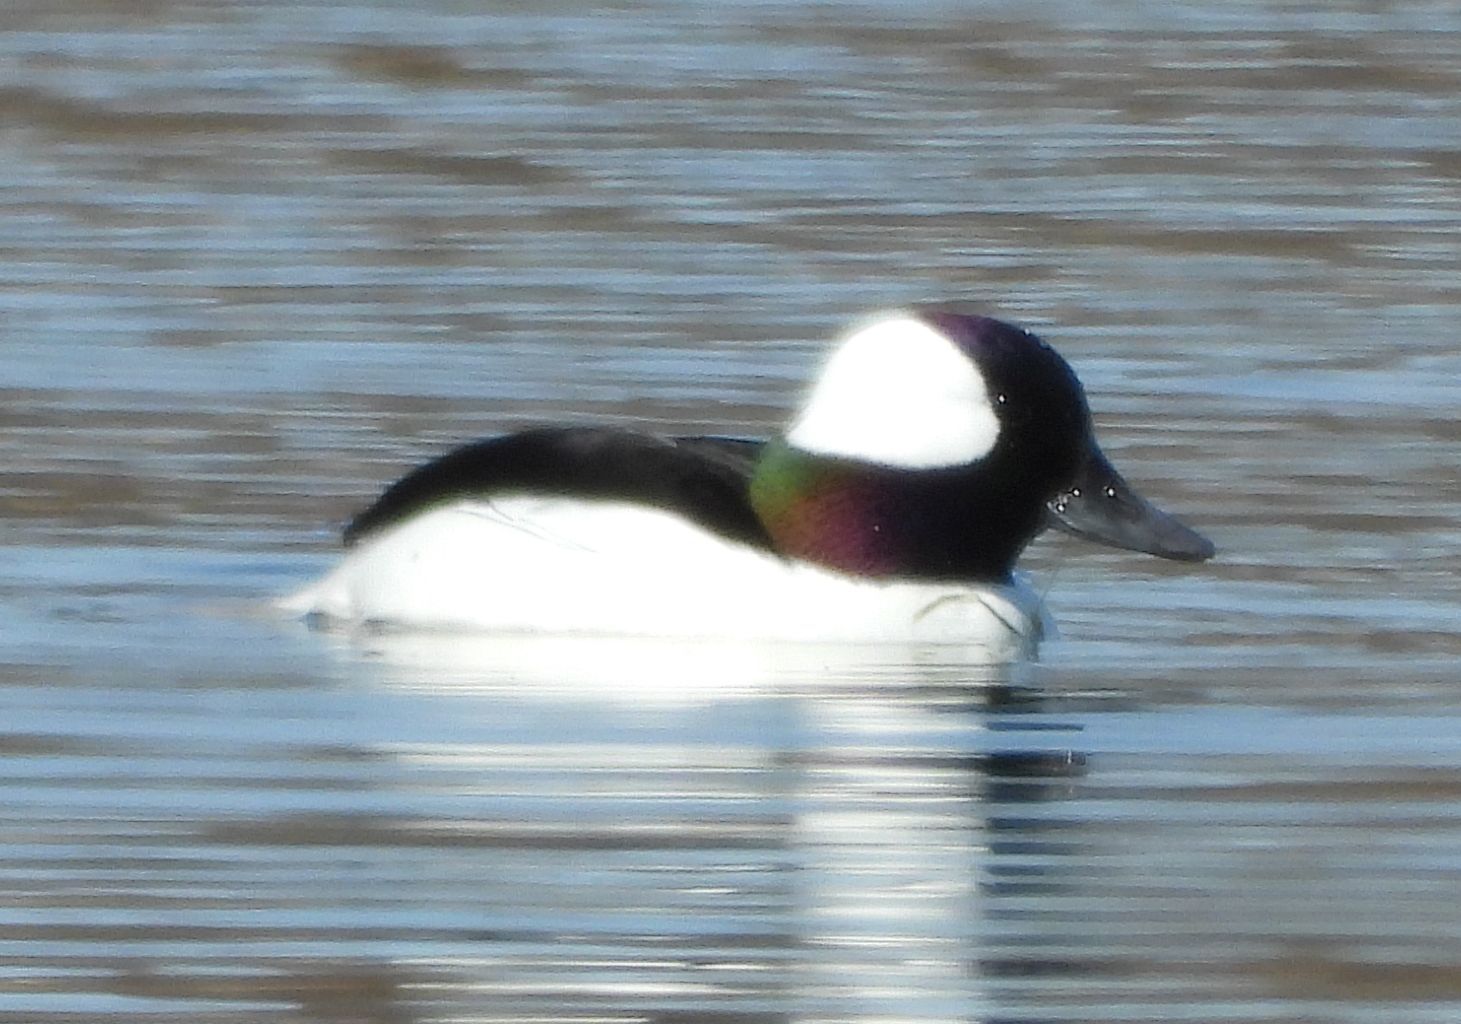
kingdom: Animalia
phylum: Chordata
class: Aves
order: Anseriformes
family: Anatidae
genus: Bucephala
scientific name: Bucephala albeola
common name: Bufflehead
